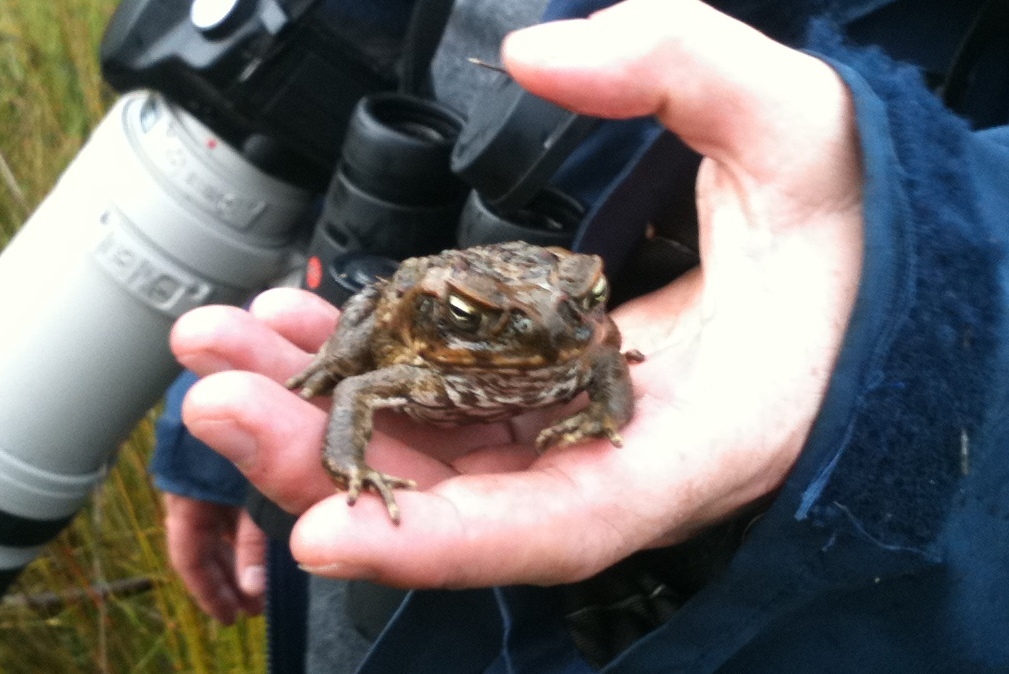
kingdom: Animalia
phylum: Chordata
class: Amphibia
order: Anura
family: Bufonidae
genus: Rhinella
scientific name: Rhinella marina
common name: Cane toad
